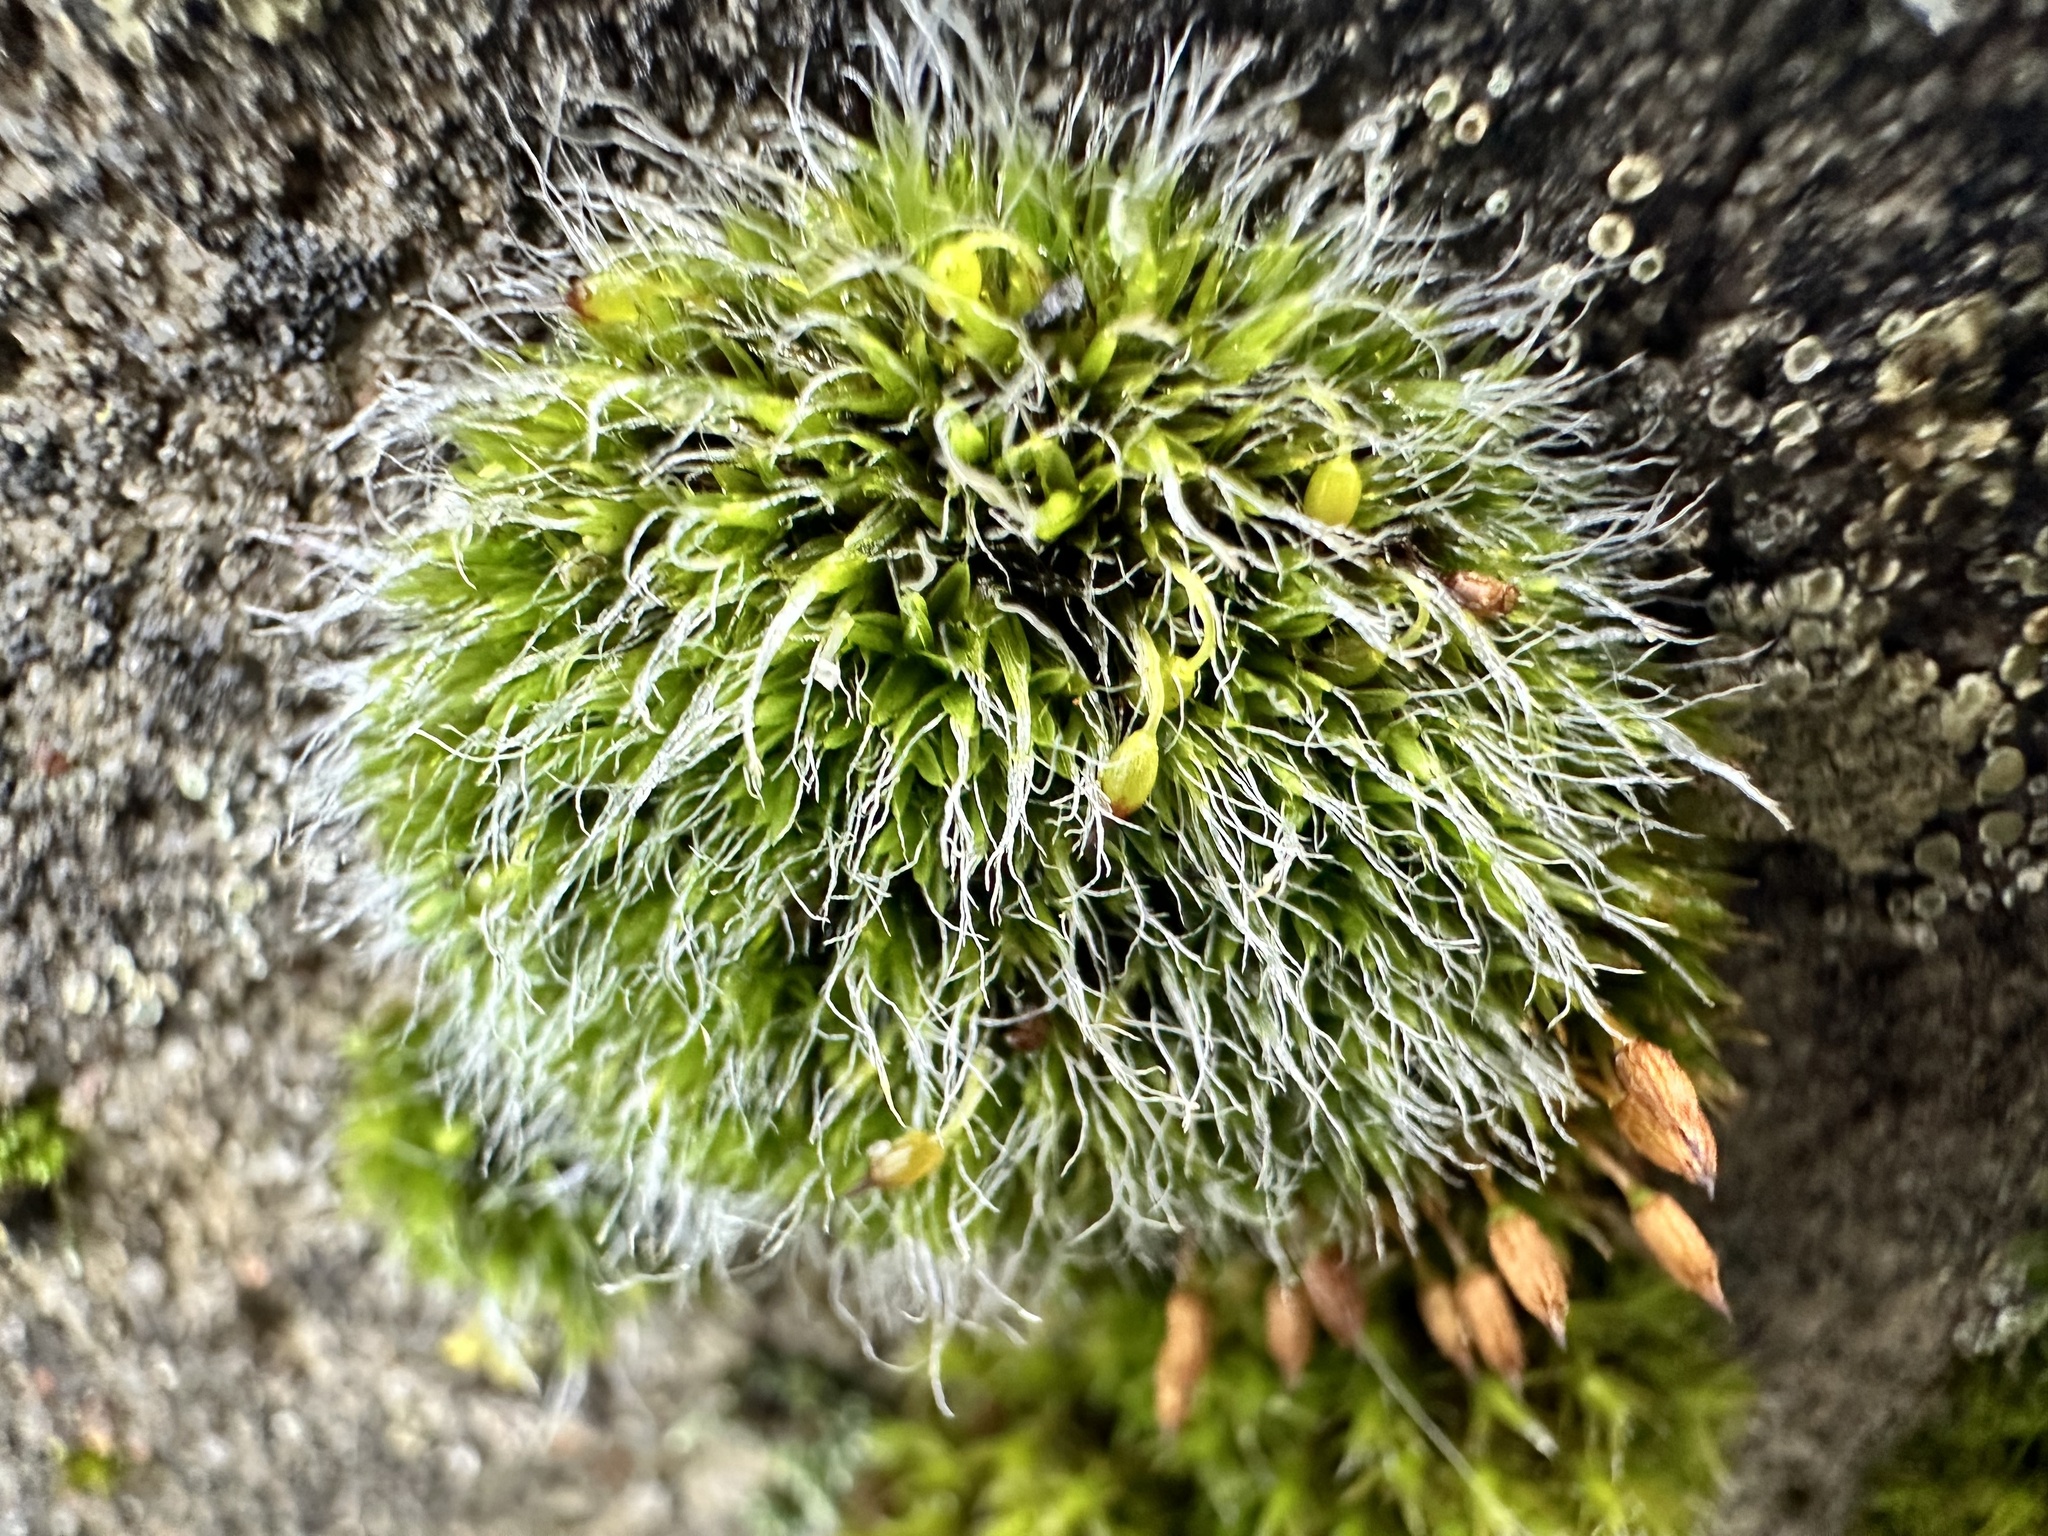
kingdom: Plantae
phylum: Bryophyta
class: Bryopsida
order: Grimmiales
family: Grimmiaceae
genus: Grimmia
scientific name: Grimmia pulvinata
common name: Grey-cushioned grimmia
